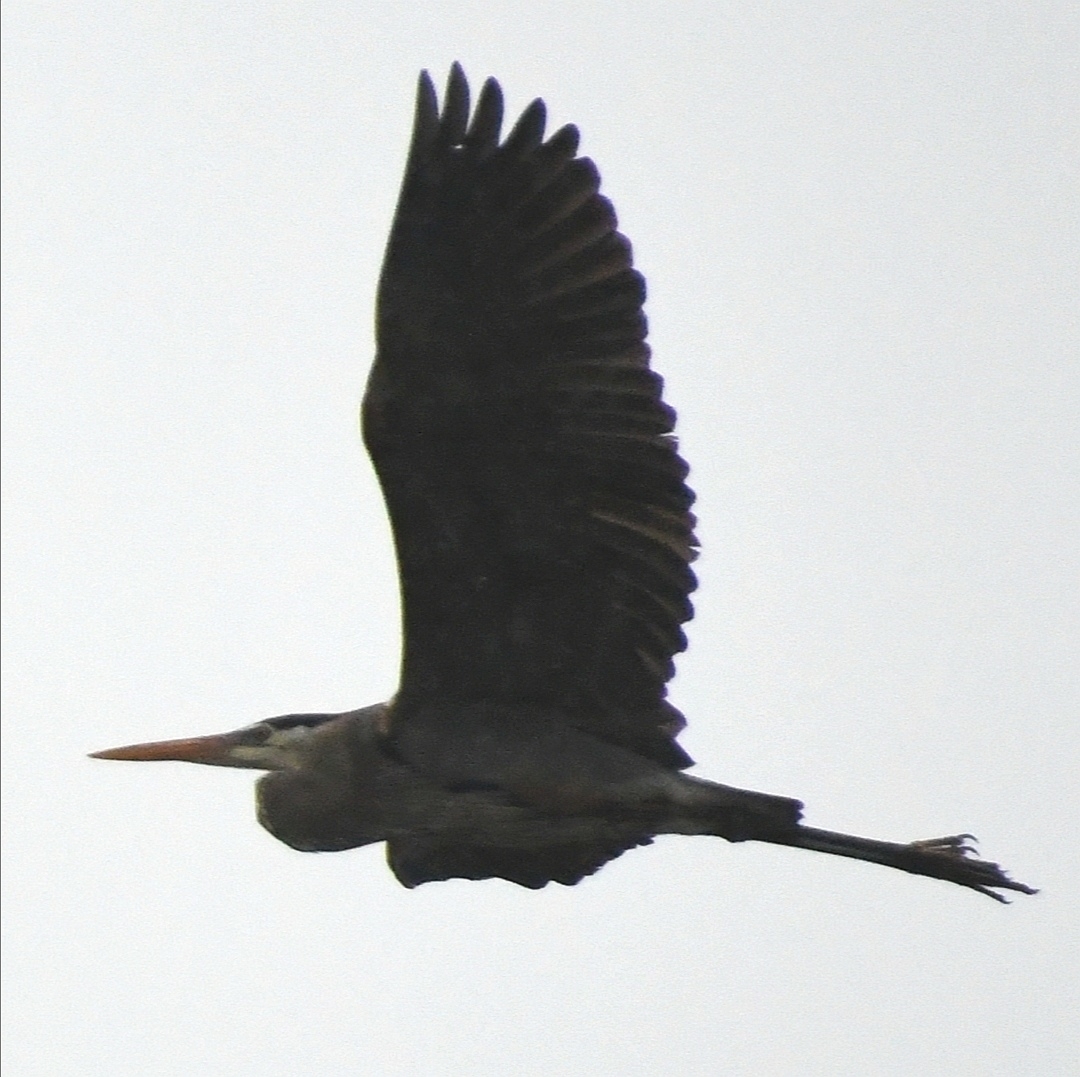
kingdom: Animalia
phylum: Chordata
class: Aves
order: Pelecaniformes
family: Ardeidae
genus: Ardea
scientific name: Ardea herodias
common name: Great blue heron
